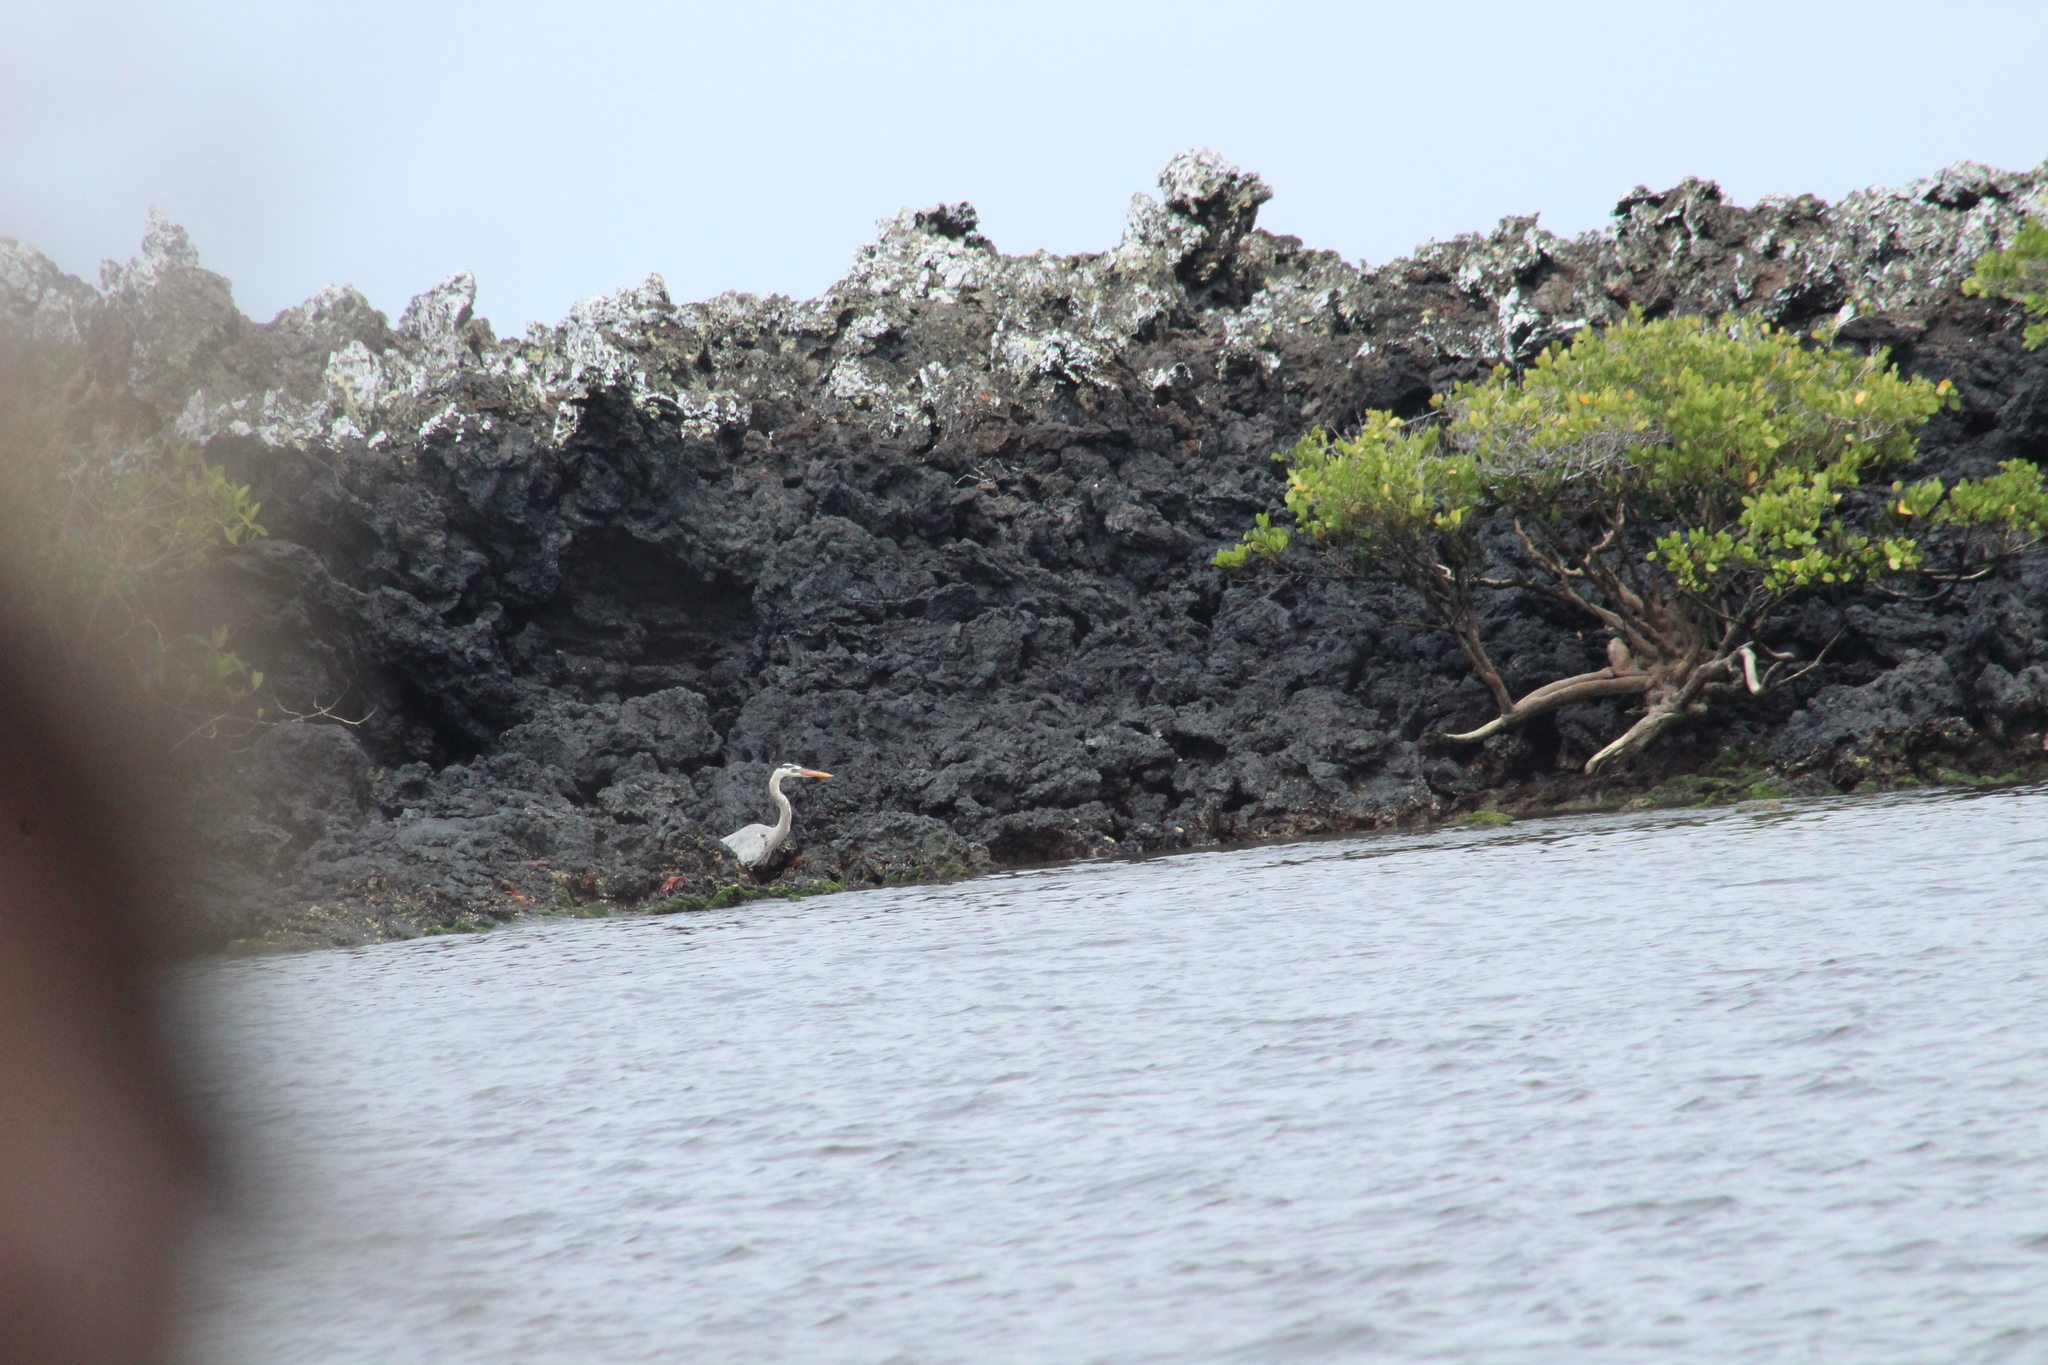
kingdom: Animalia
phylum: Chordata
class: Aves
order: Pelecaniformes
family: Ardeidae
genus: Ardea
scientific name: Ardea herodias
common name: Great blue heron
